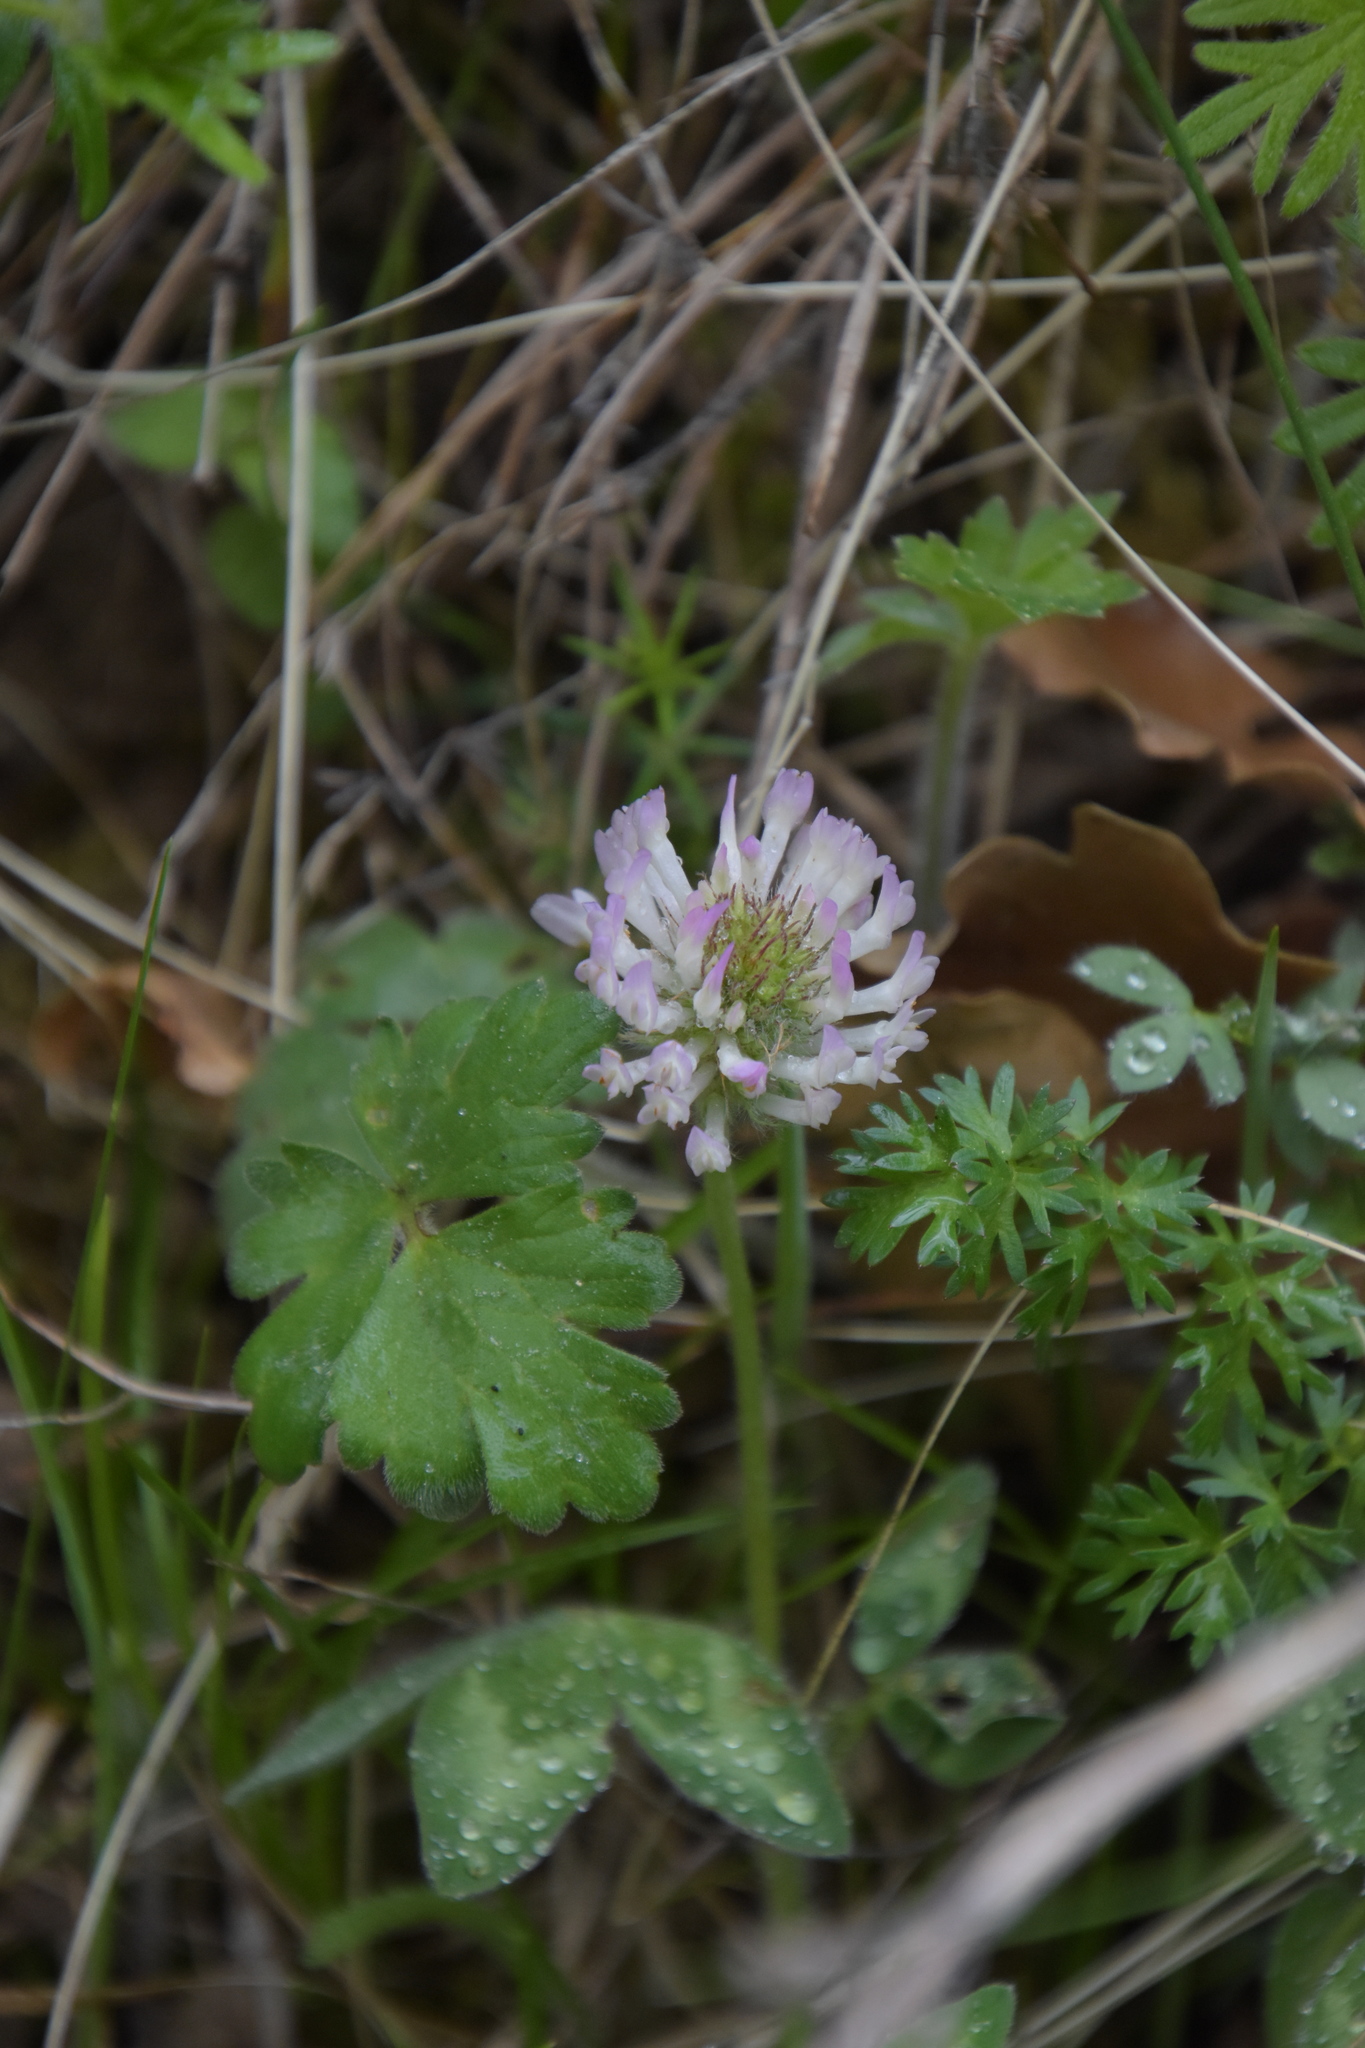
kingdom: Plantae
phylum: Tracheophyta
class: Magnoliopsida
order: Fabales
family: Fabaceae
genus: Trifolium
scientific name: Trifolium pratense
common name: Red clover
